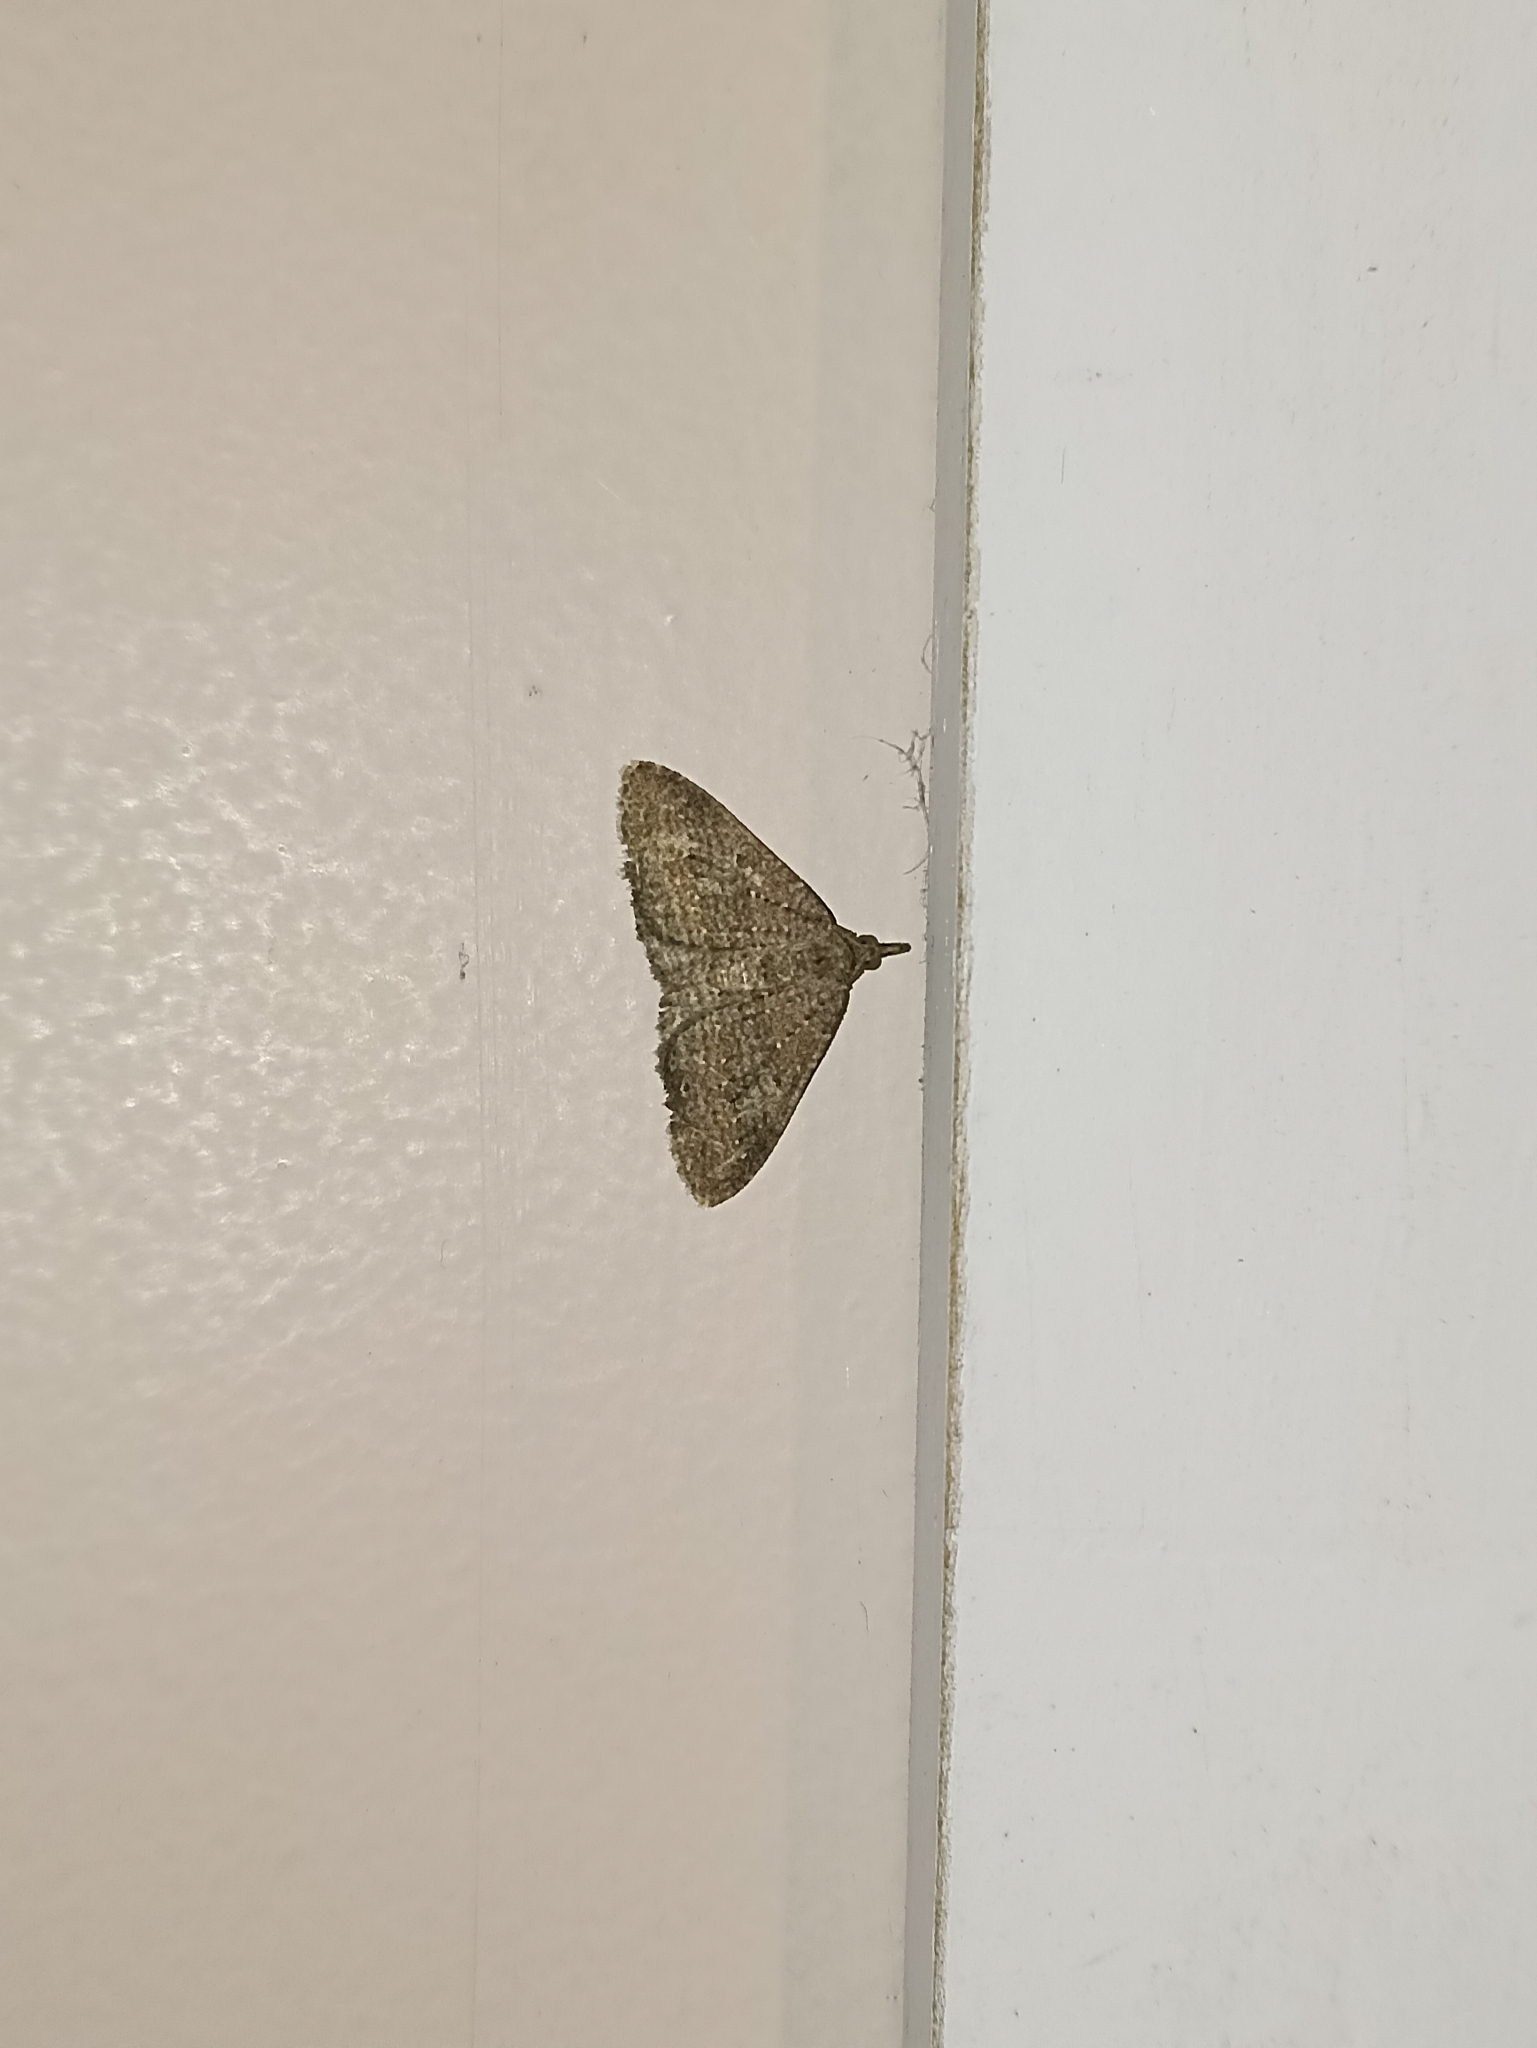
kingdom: Animalia
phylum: Arthropoda
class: Insecta
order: Lepidoptera
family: Geometridae
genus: Epyaxa
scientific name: Epyaxa venipunctata
